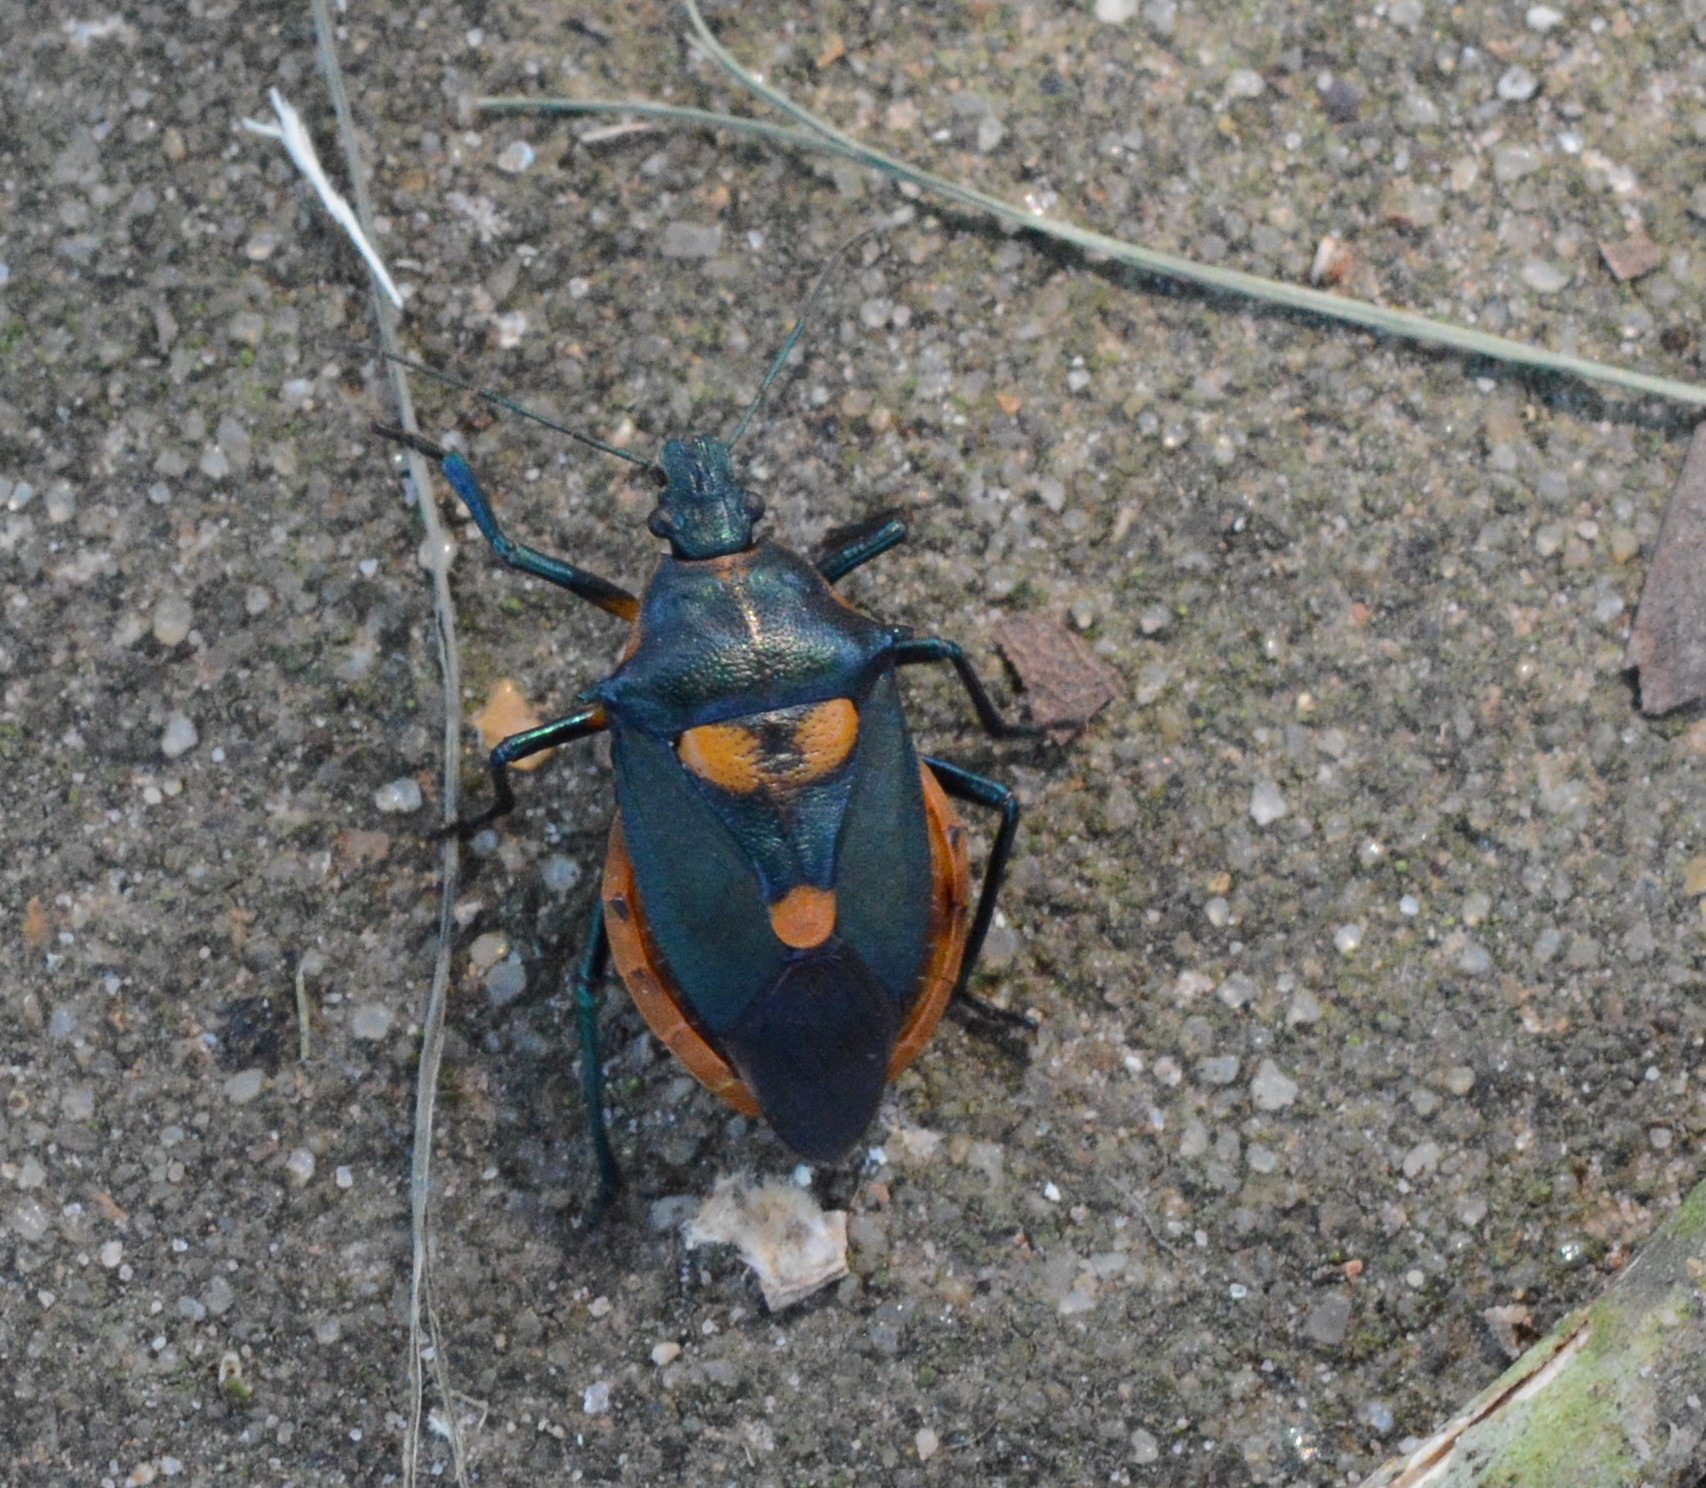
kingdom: Animalia
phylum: Arthropoda
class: Insecta
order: Hemiptera
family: Pentatomidae
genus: Euthyrhynchus
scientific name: Euthyrhynchus floridanus
